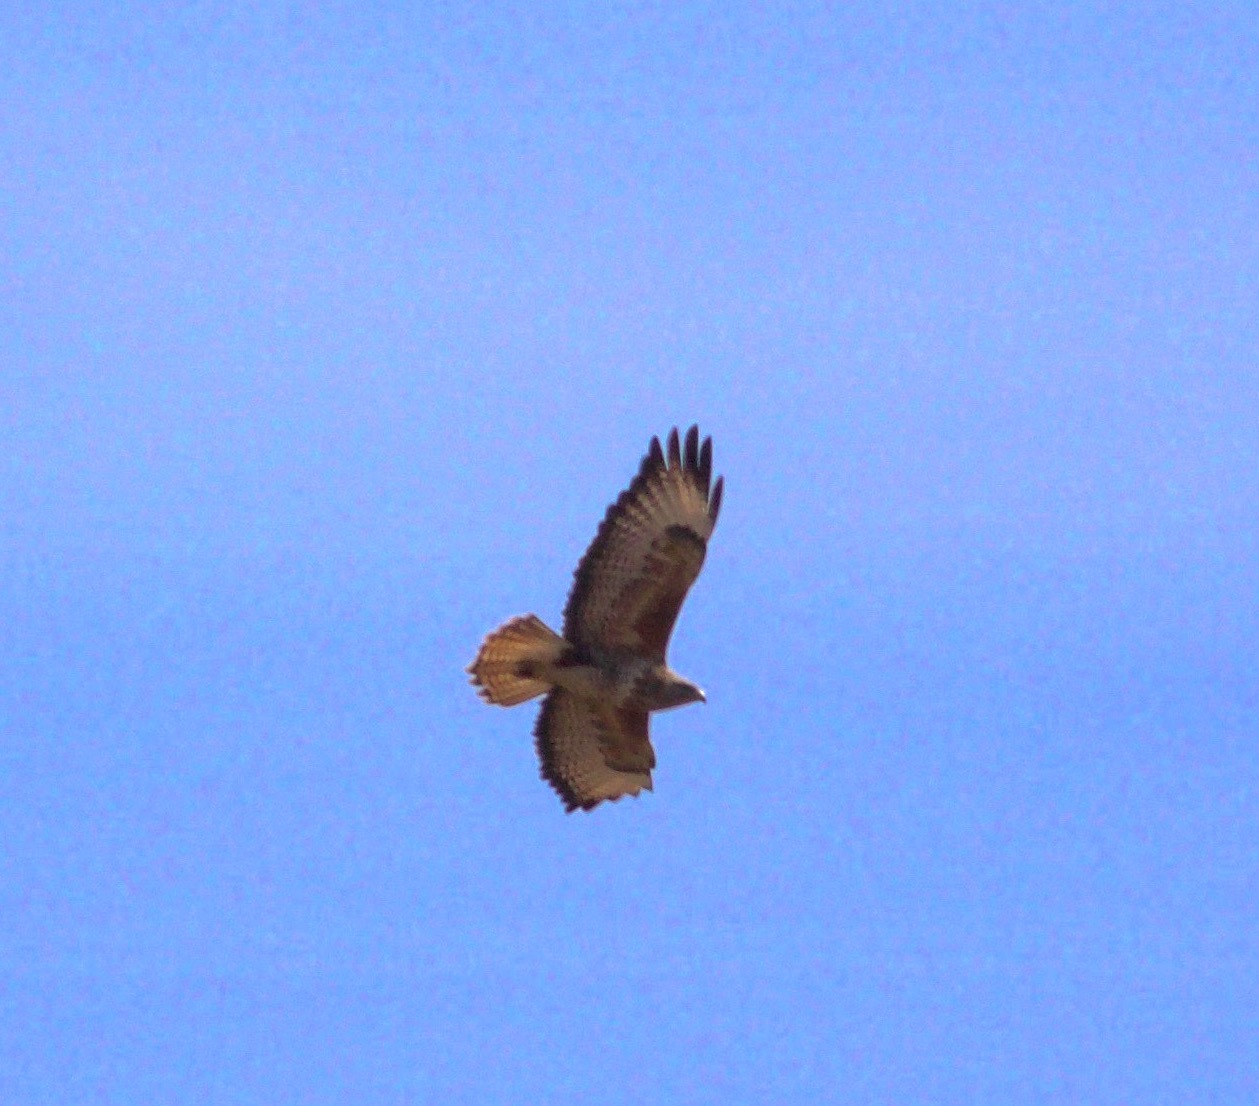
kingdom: Animalia
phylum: Chordata
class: Aves
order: Accipitriformes
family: Accipitridae
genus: Buteo
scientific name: Buteo buteo
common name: Common buzzard
